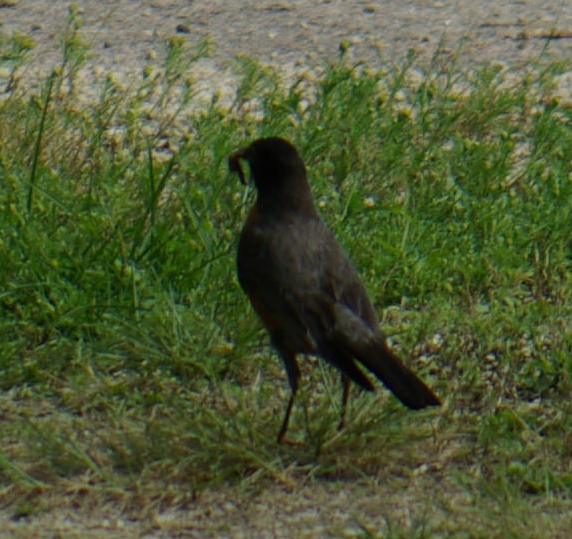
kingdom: Animalia
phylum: Chordata
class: Aves
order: Passeriformes
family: Turdidae
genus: Turdus
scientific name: Turdus migratorius
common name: American robin
